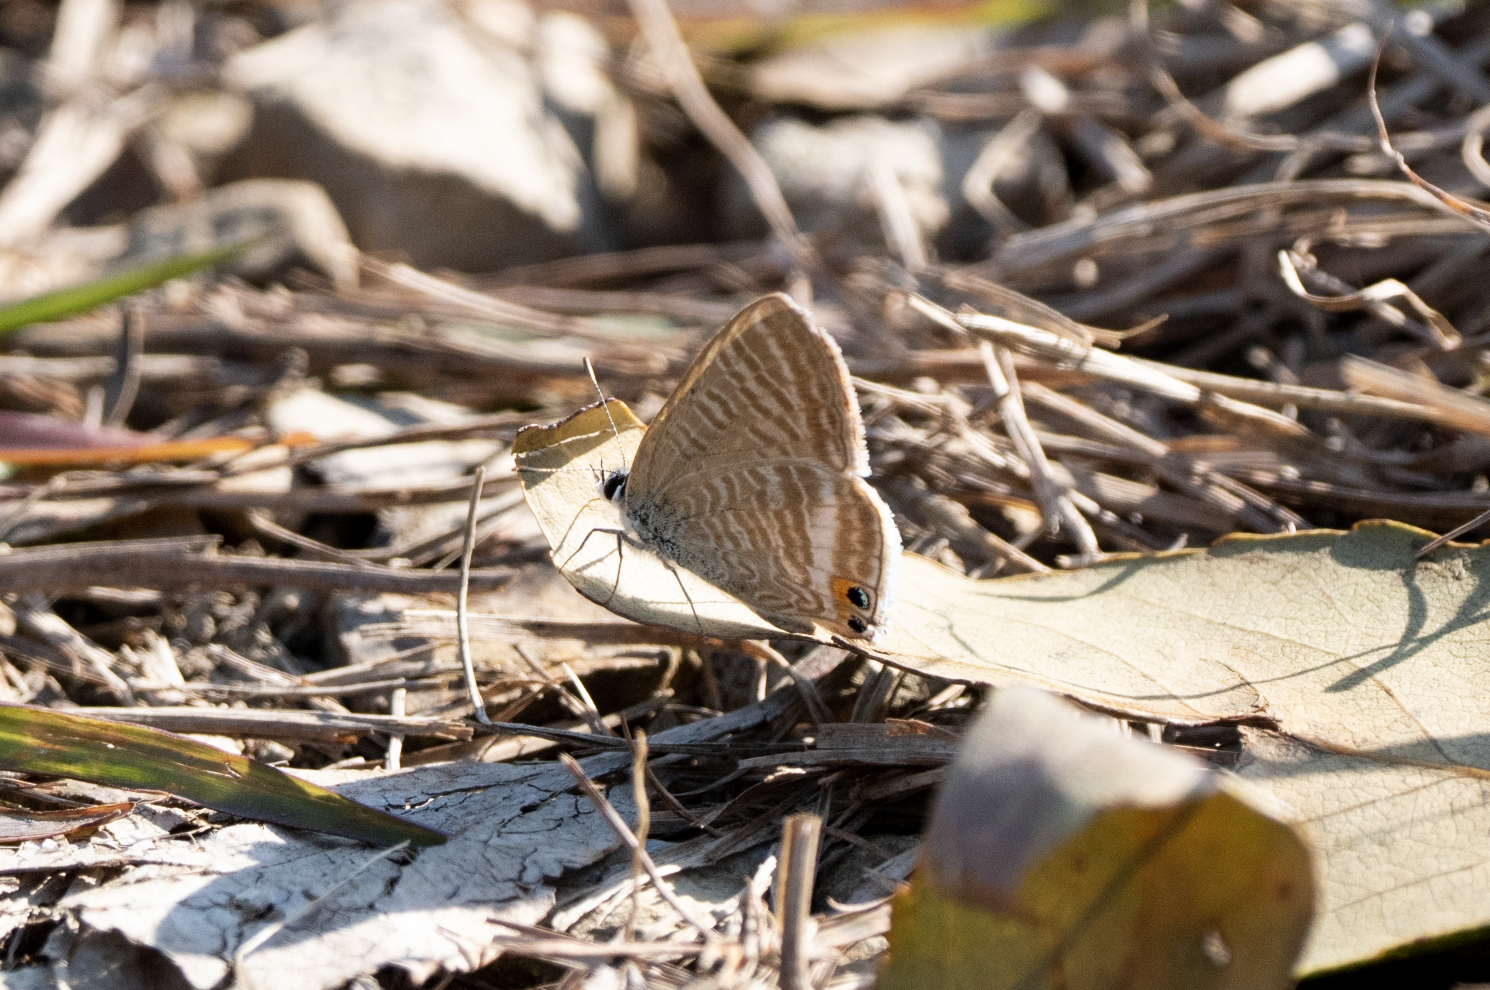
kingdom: Animalia
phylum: Arthropoda
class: Insecta
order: Lepidoptera
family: Lycaenidae
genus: Lampides
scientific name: Lampides boeticus
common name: Long-tailed blue
